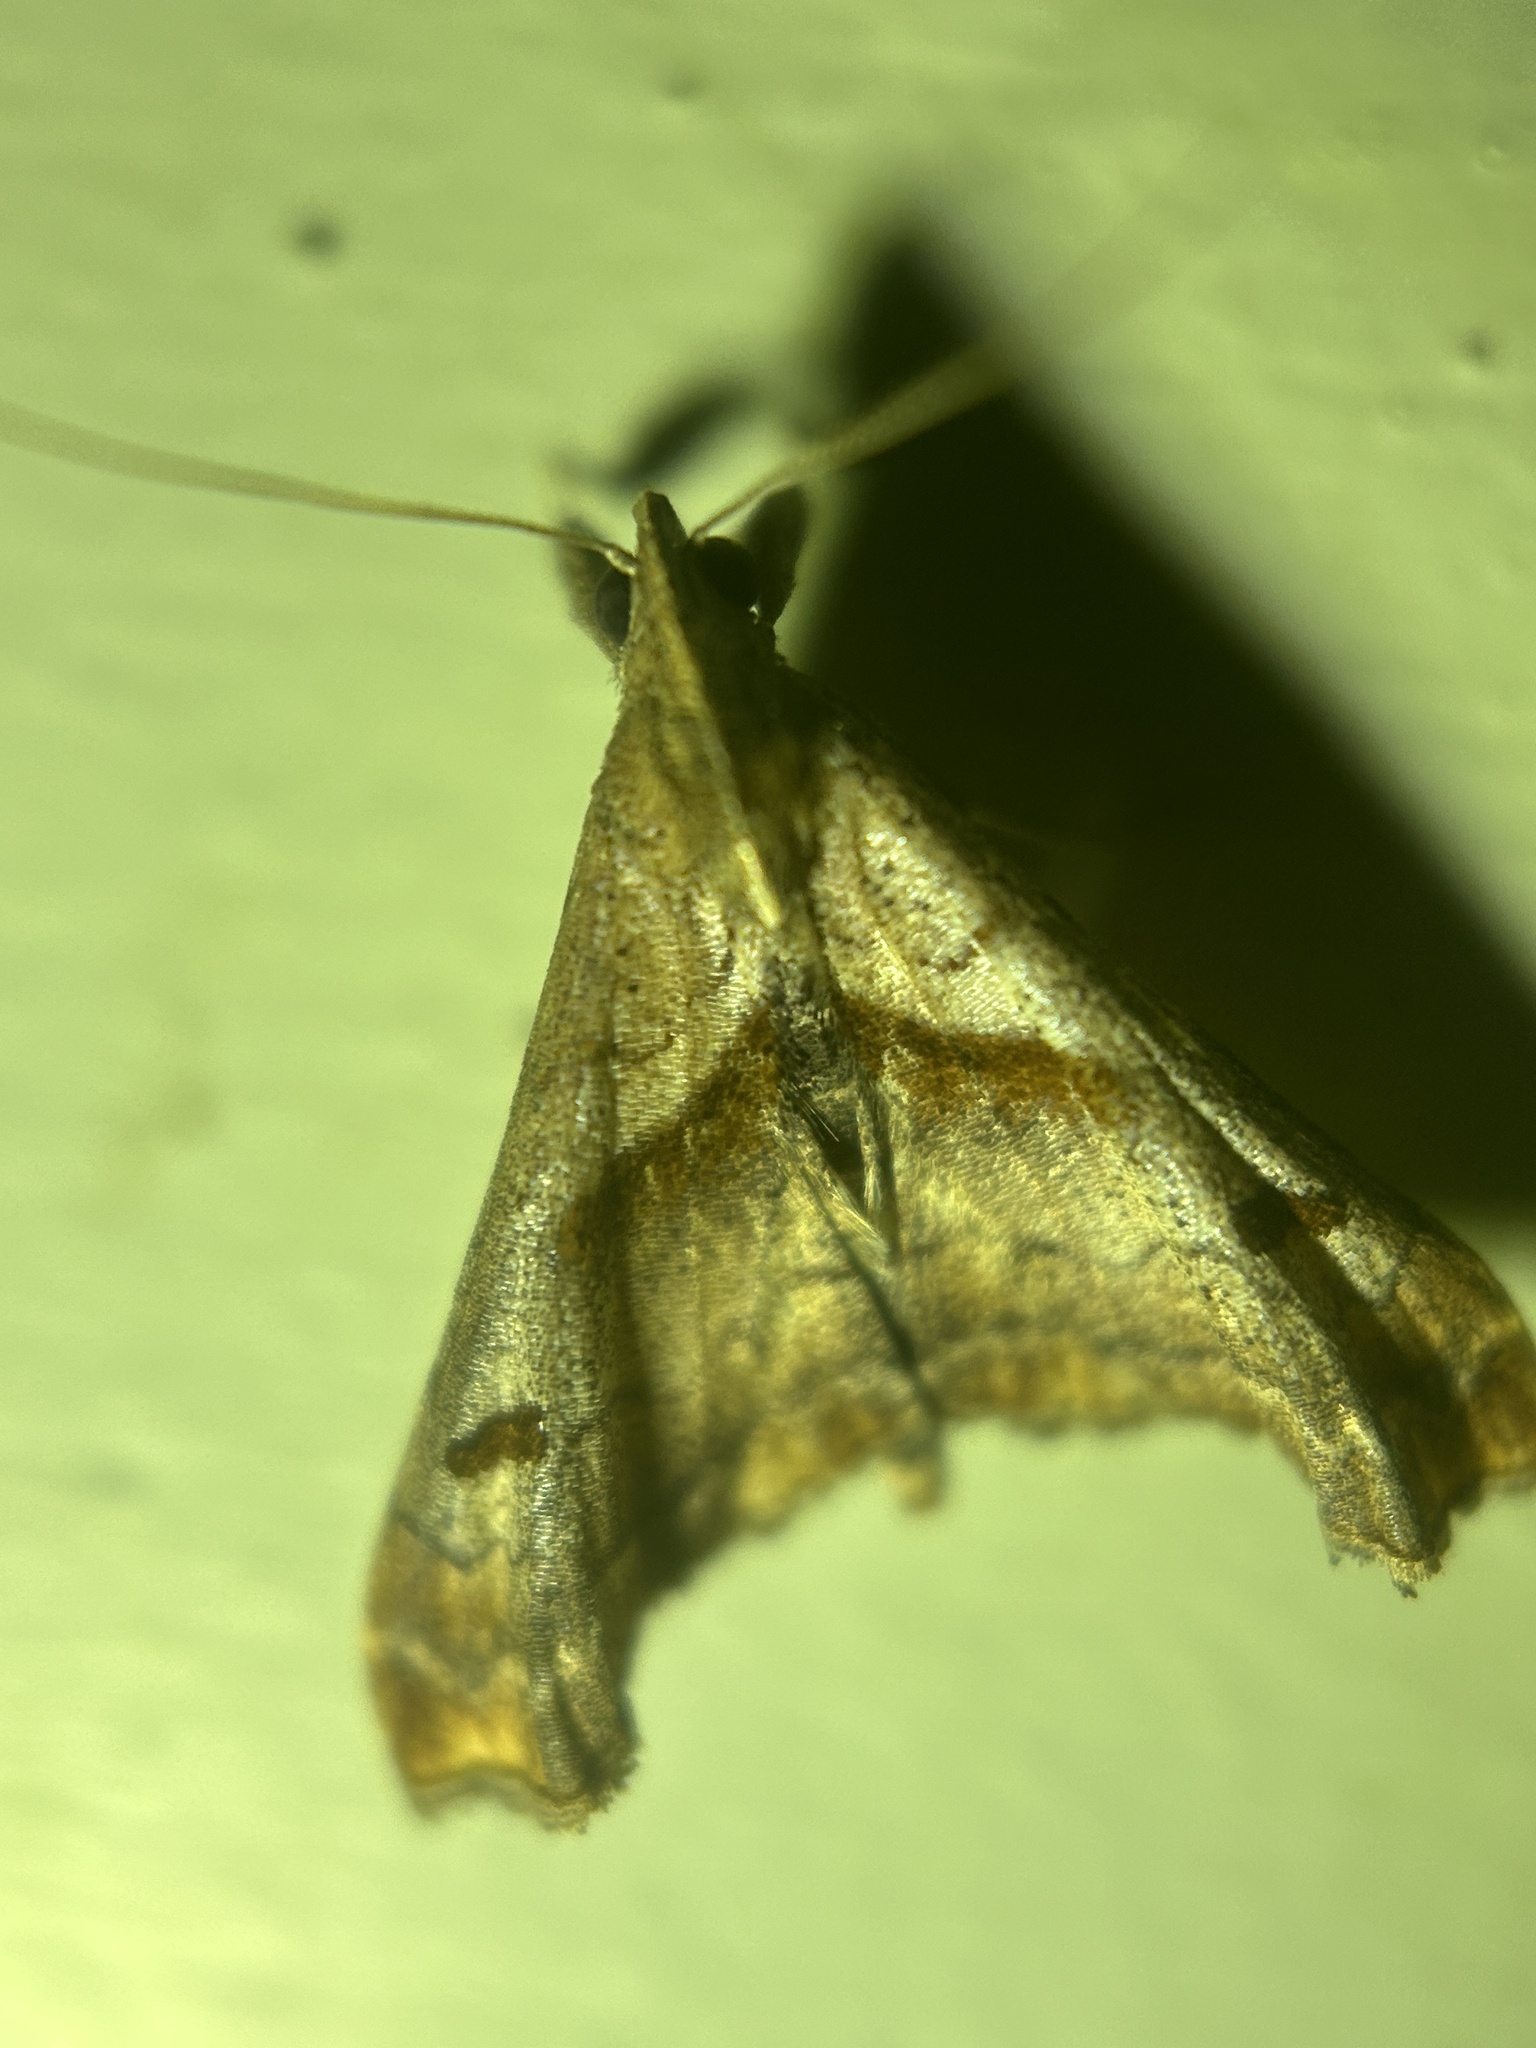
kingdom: Animalia
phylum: Arthropoda
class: Insecta
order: Lepidoptera
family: Erebidae
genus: Palthis
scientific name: Palthis angulalis
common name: Dark-spotted palthis moth
